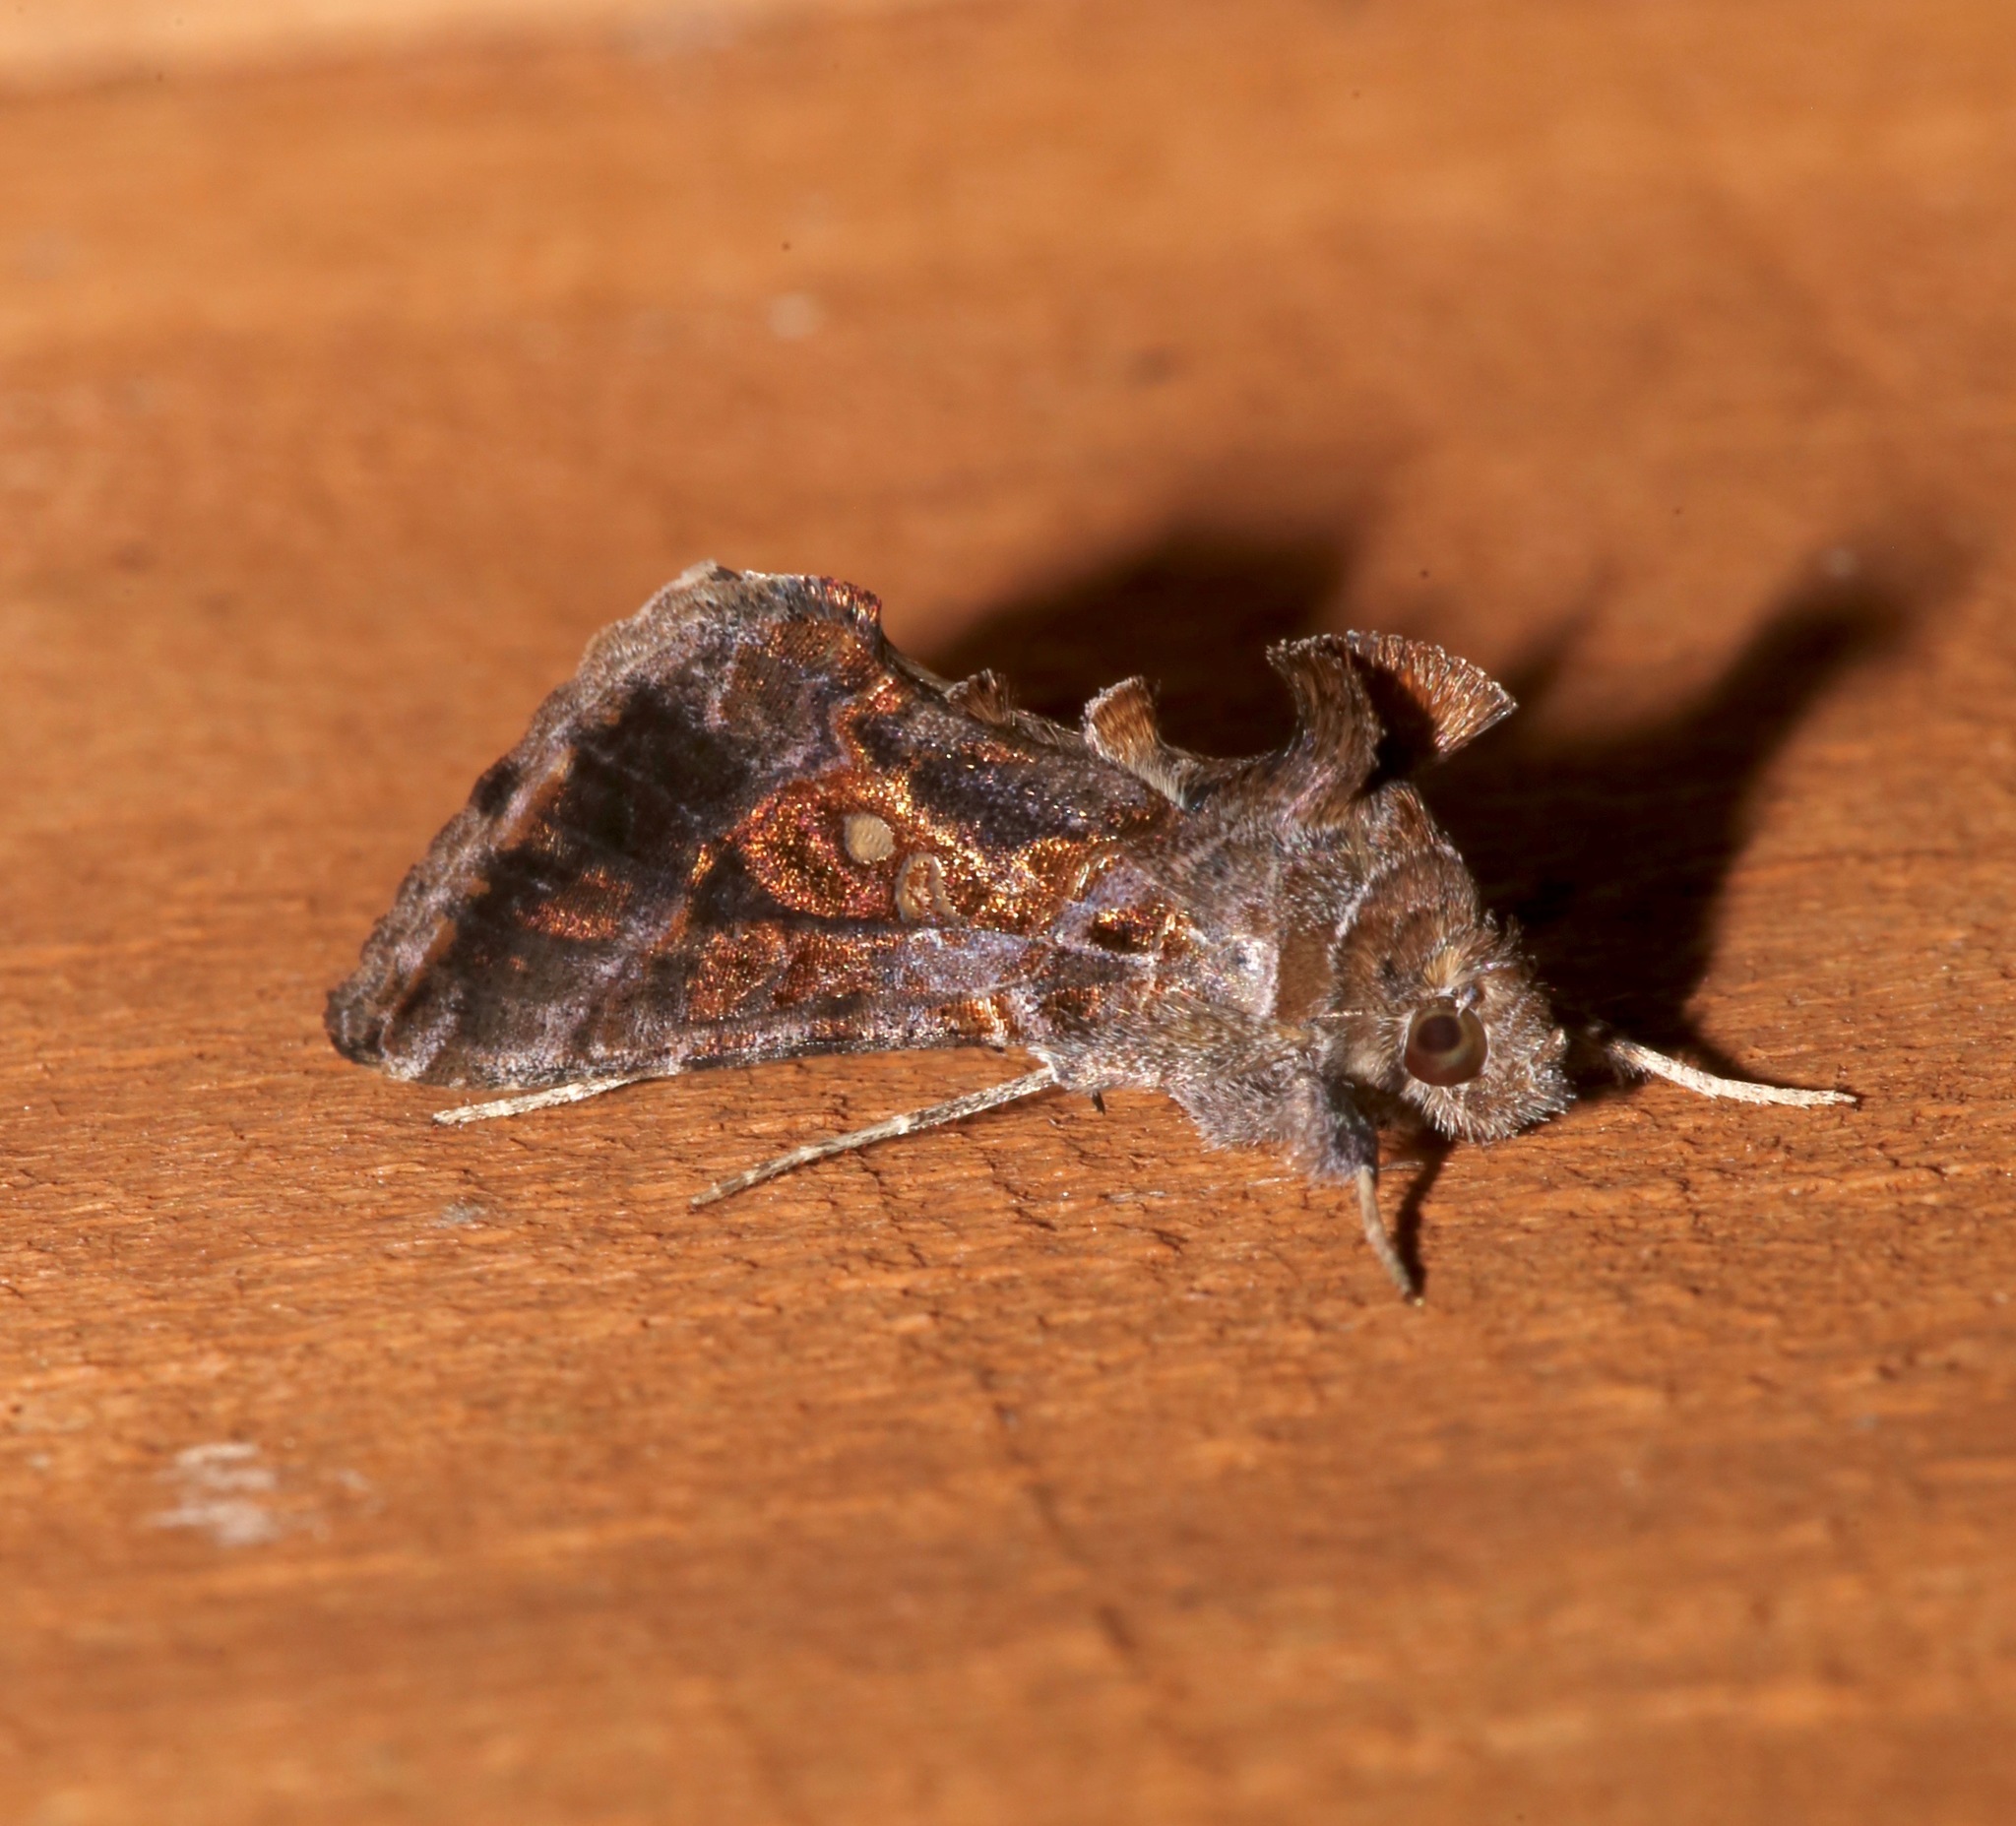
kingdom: Animalia
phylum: Arthropoda
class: Insecta
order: Lepidoptera
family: Noctuidae
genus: Chrysodeixis
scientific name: Chrysodeixis includens
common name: Cutworm moth
